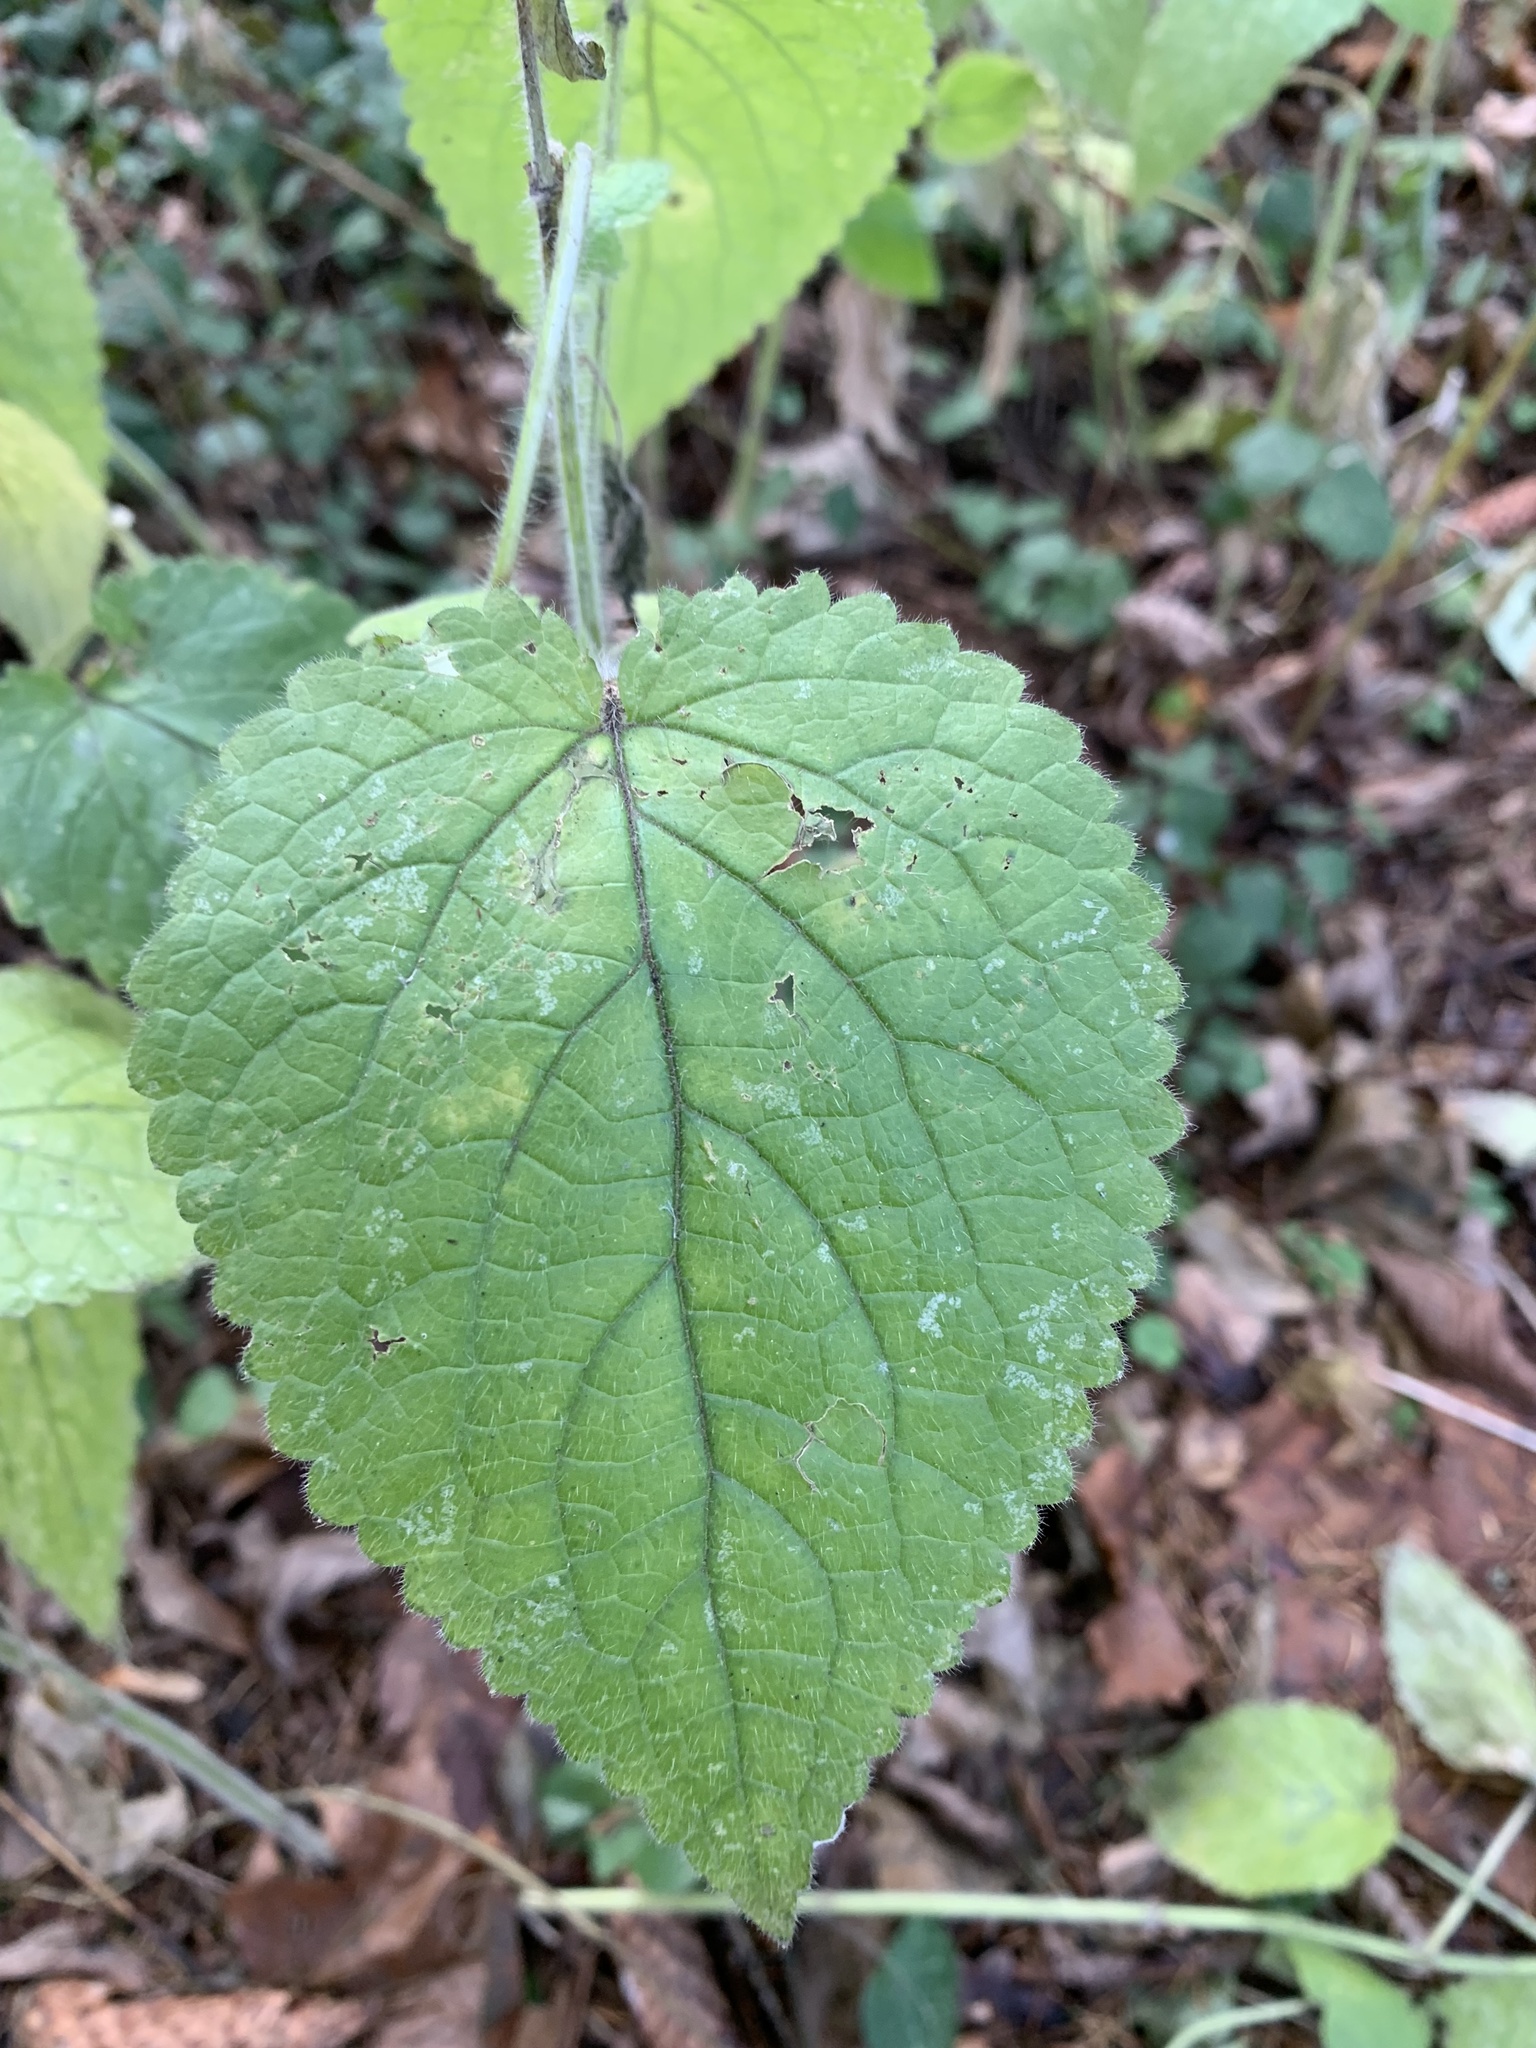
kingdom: Plantae
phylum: Tracheophyta
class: Magnoliopsida
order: Lamiales
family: Lamiaceae
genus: Stachys
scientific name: Stachys sylvatica
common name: Hedge woundwort
